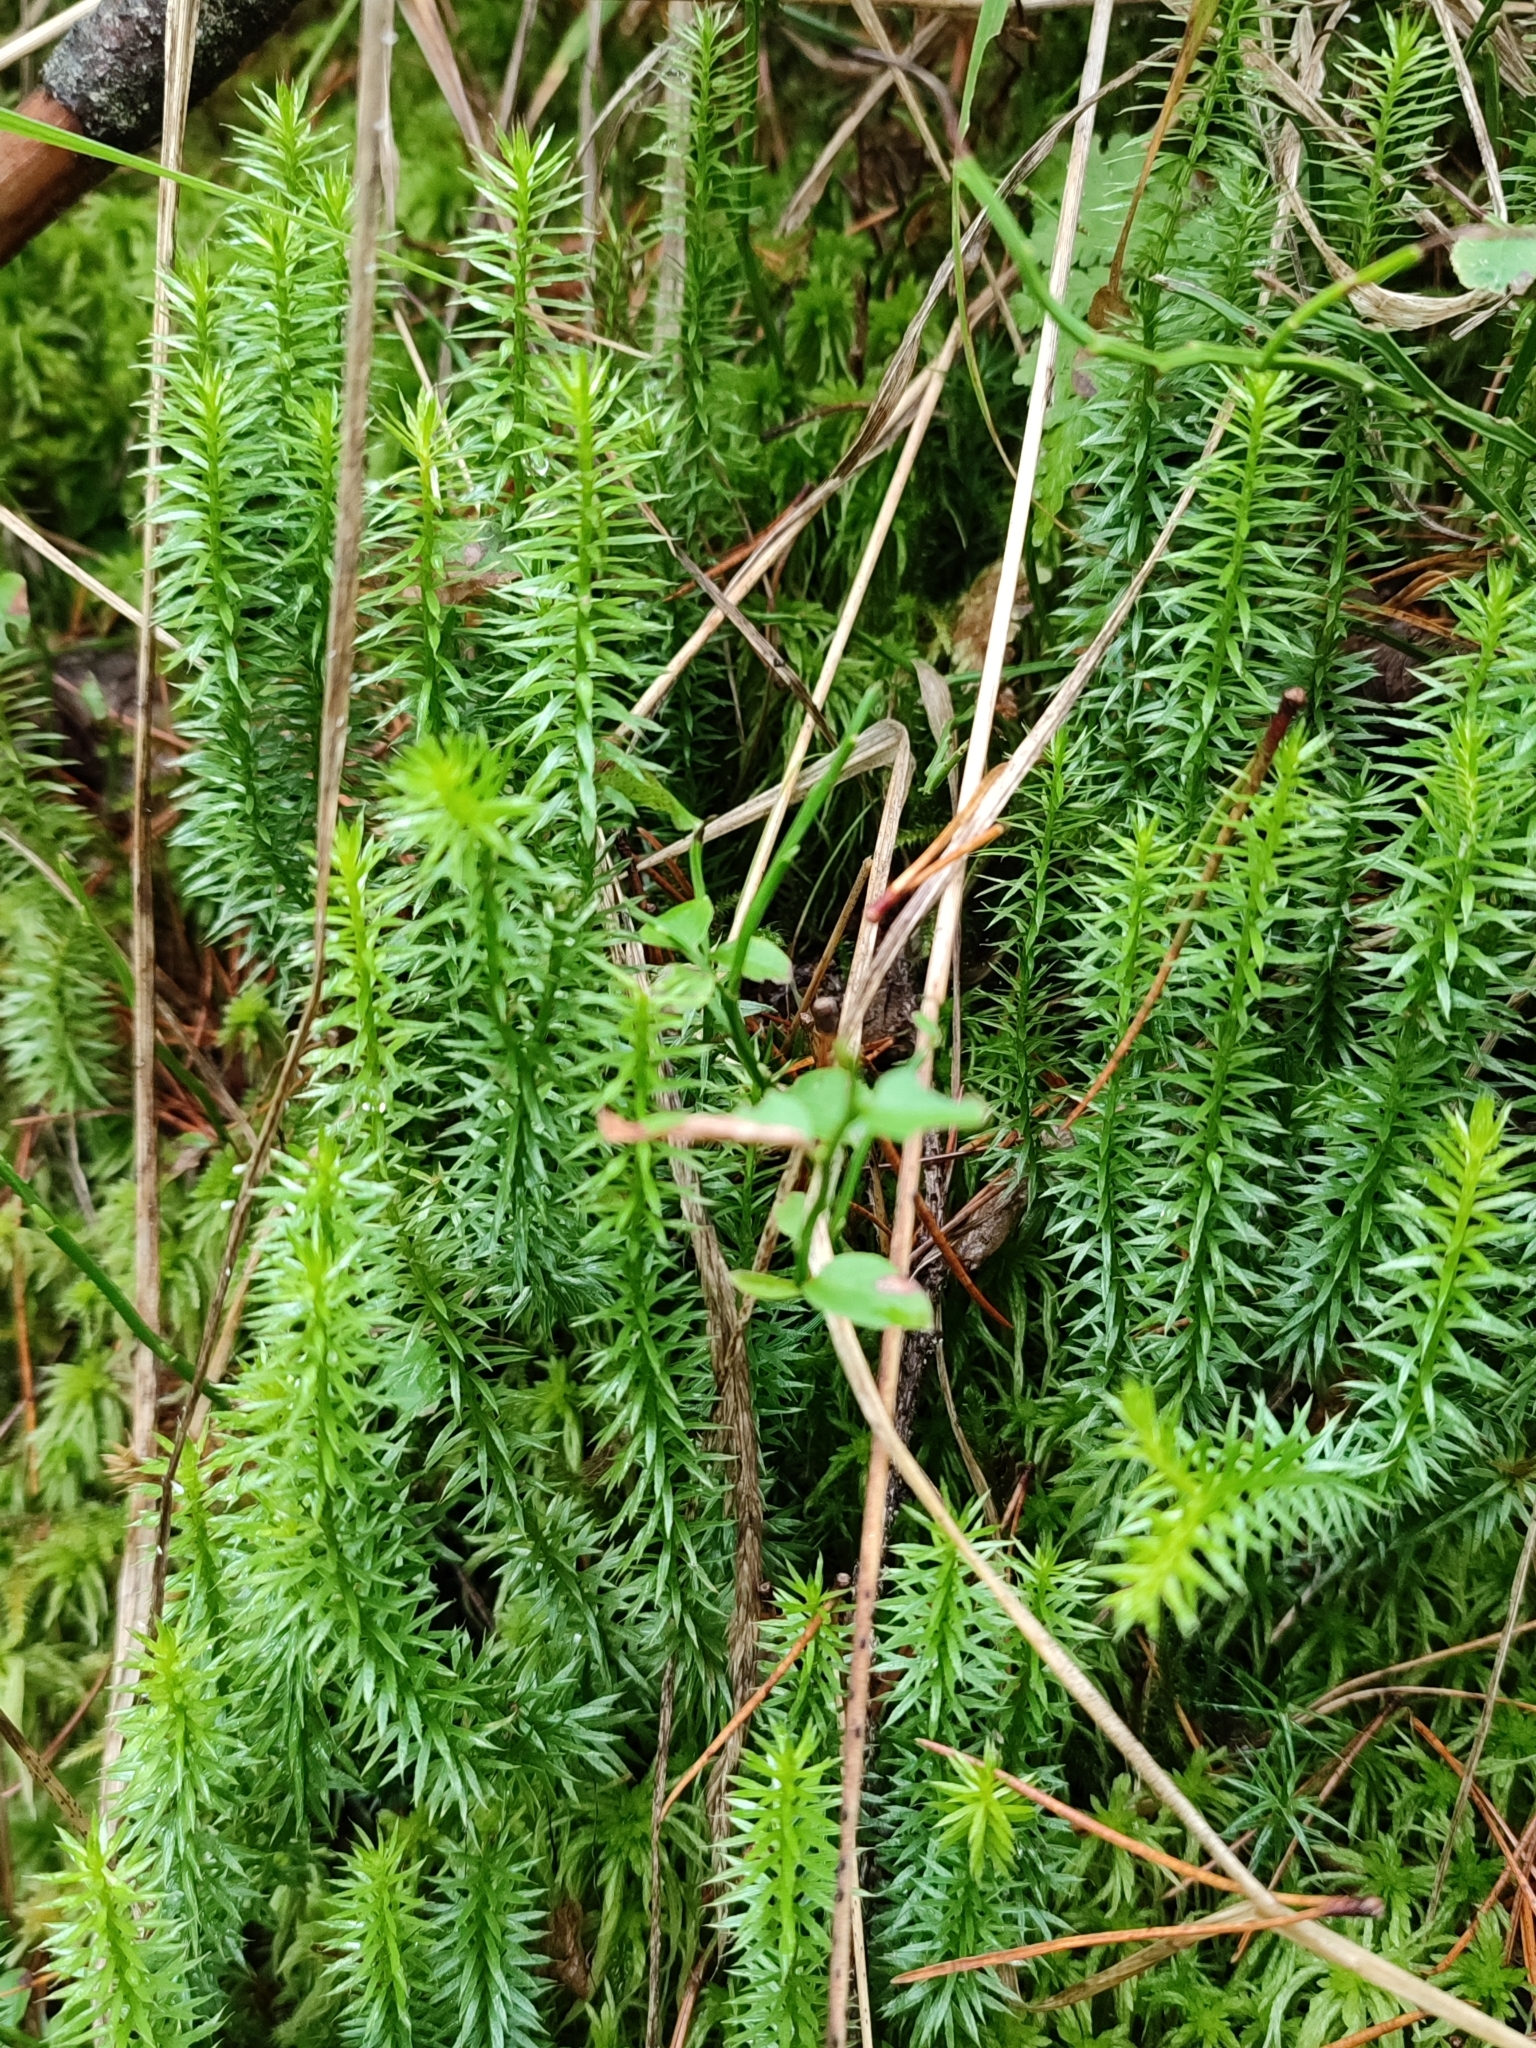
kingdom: Plantae
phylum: Tracheophyta
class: Lycopodiopsida
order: Lycopodiales
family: Lycopodiaceae
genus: Spinulum
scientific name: Spinulum annotinum
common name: Interrupted club-moss
